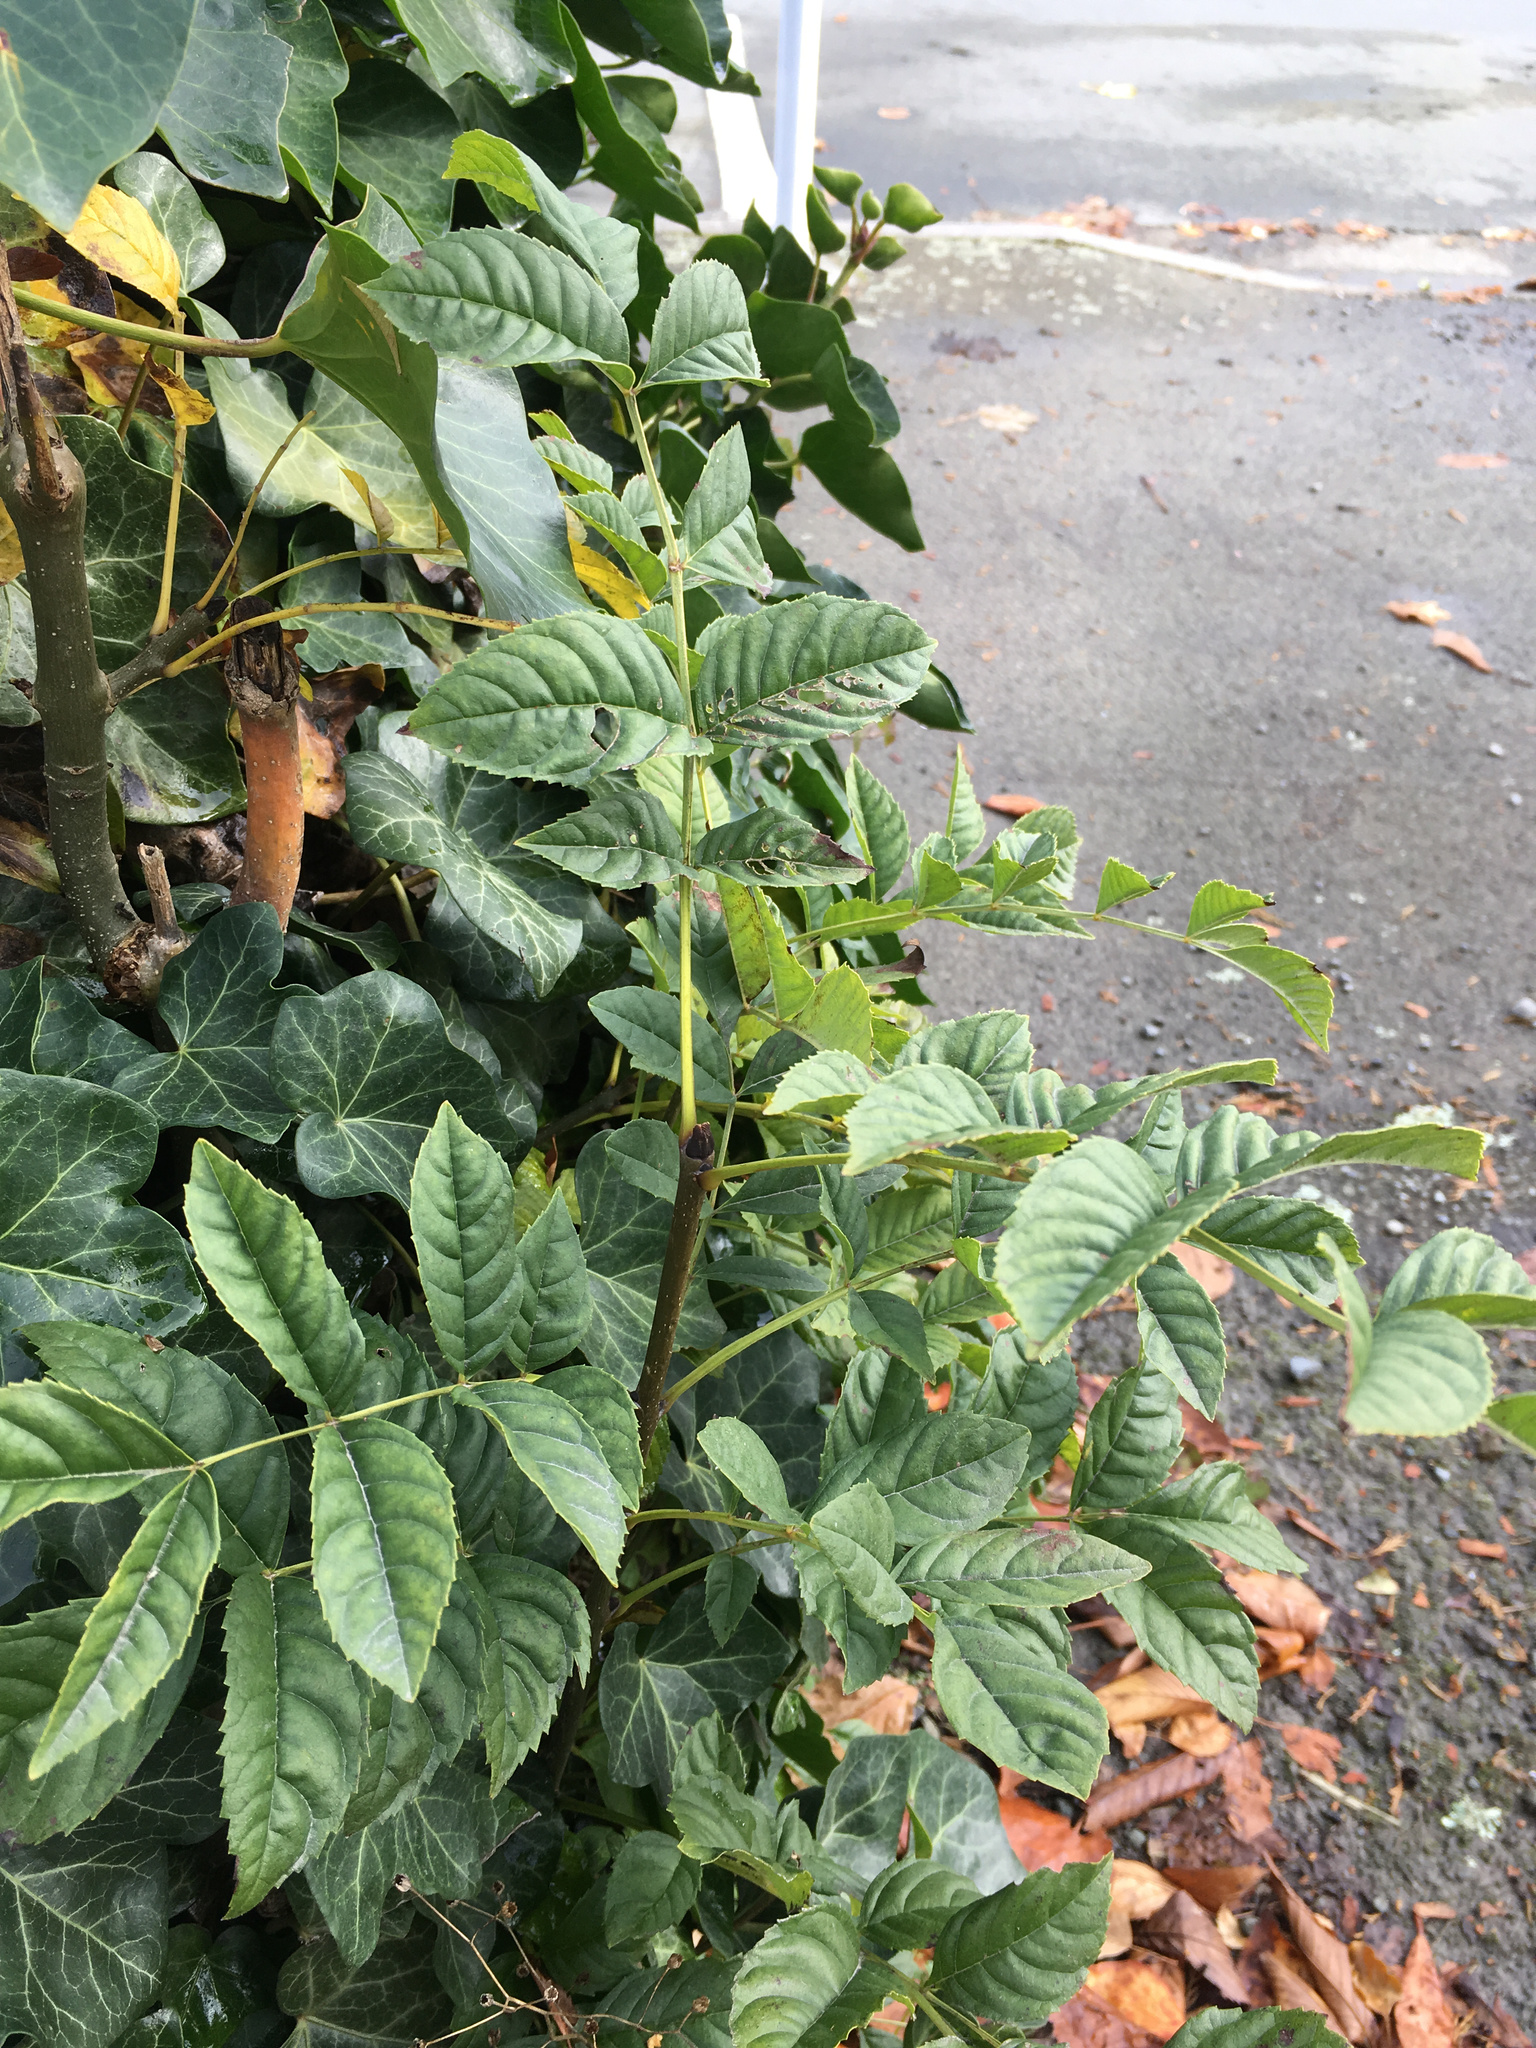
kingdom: Plantae
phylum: Tracheophyta
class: Magnoliopsida
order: Lamiales
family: Oleaceae
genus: Fraxinus
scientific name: Fraxinus excelsior
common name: European ash
